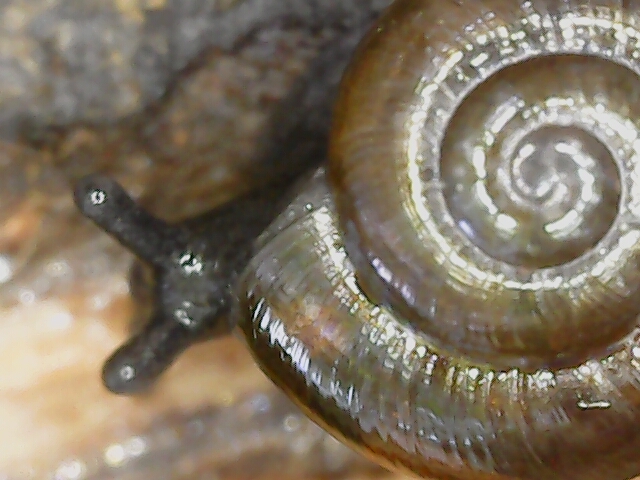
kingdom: Animalia
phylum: Mollusca
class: Gastropoda
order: Stylommatophora
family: Gastrodontidae
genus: Zonitoides
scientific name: Zonitoides nitidus
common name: Shiny glass snail
